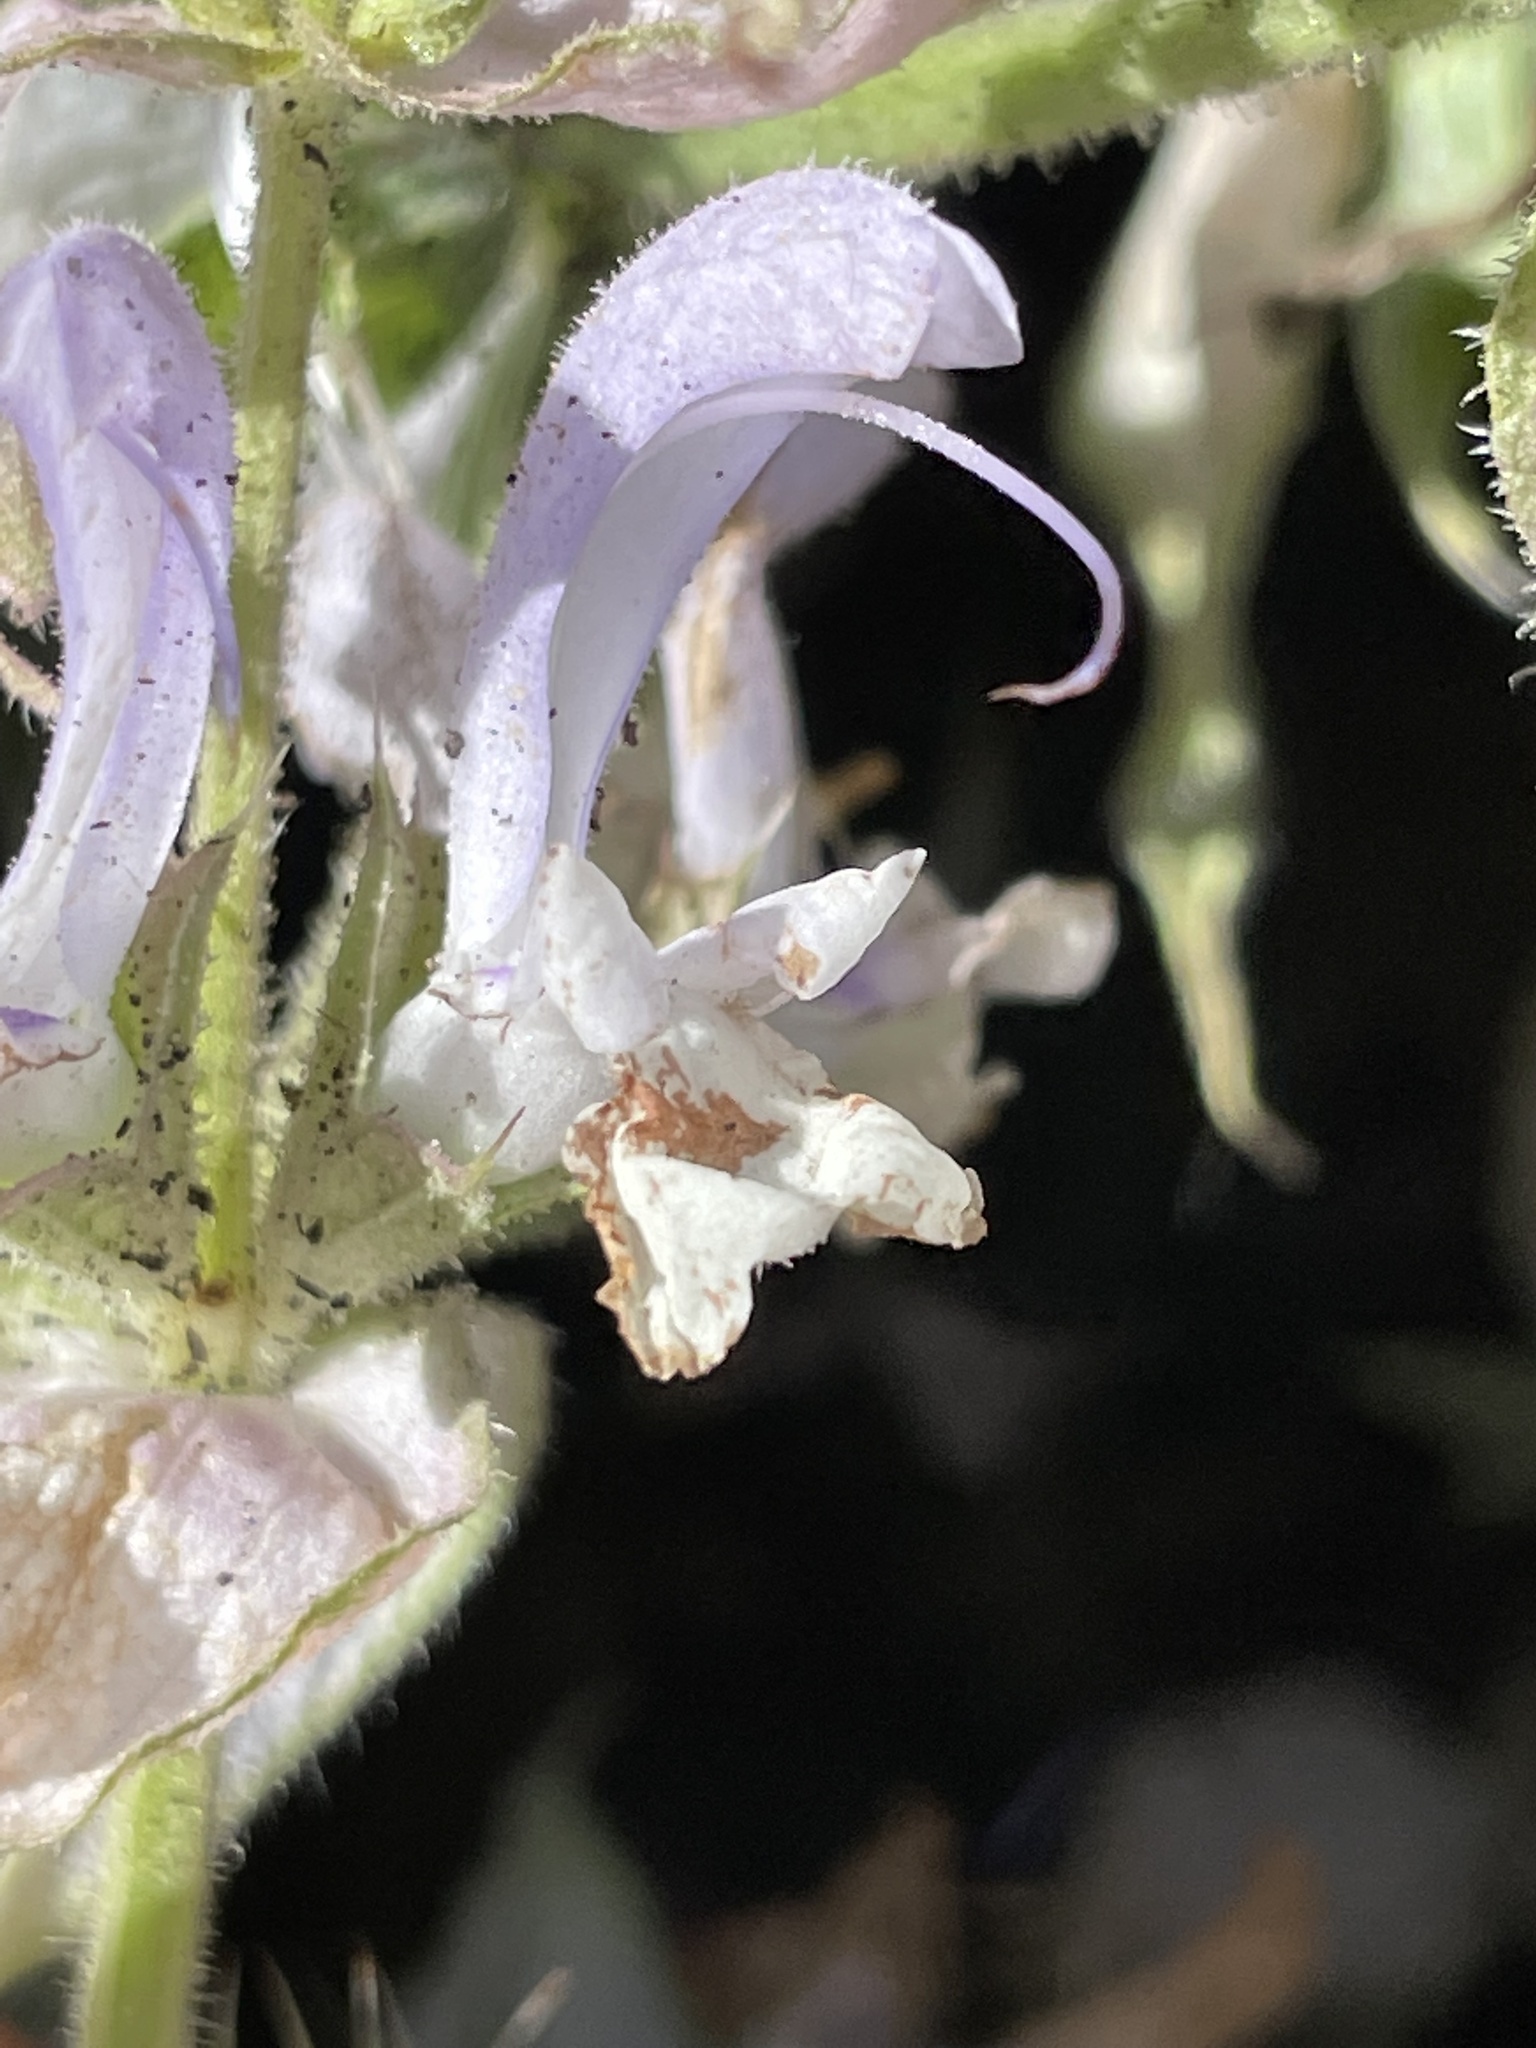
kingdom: Plantae
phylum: Tracheophyta
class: Magnoliopsida
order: Lamiales
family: Lamiaceae
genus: Salvia
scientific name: Salvia sclarea
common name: Clary
